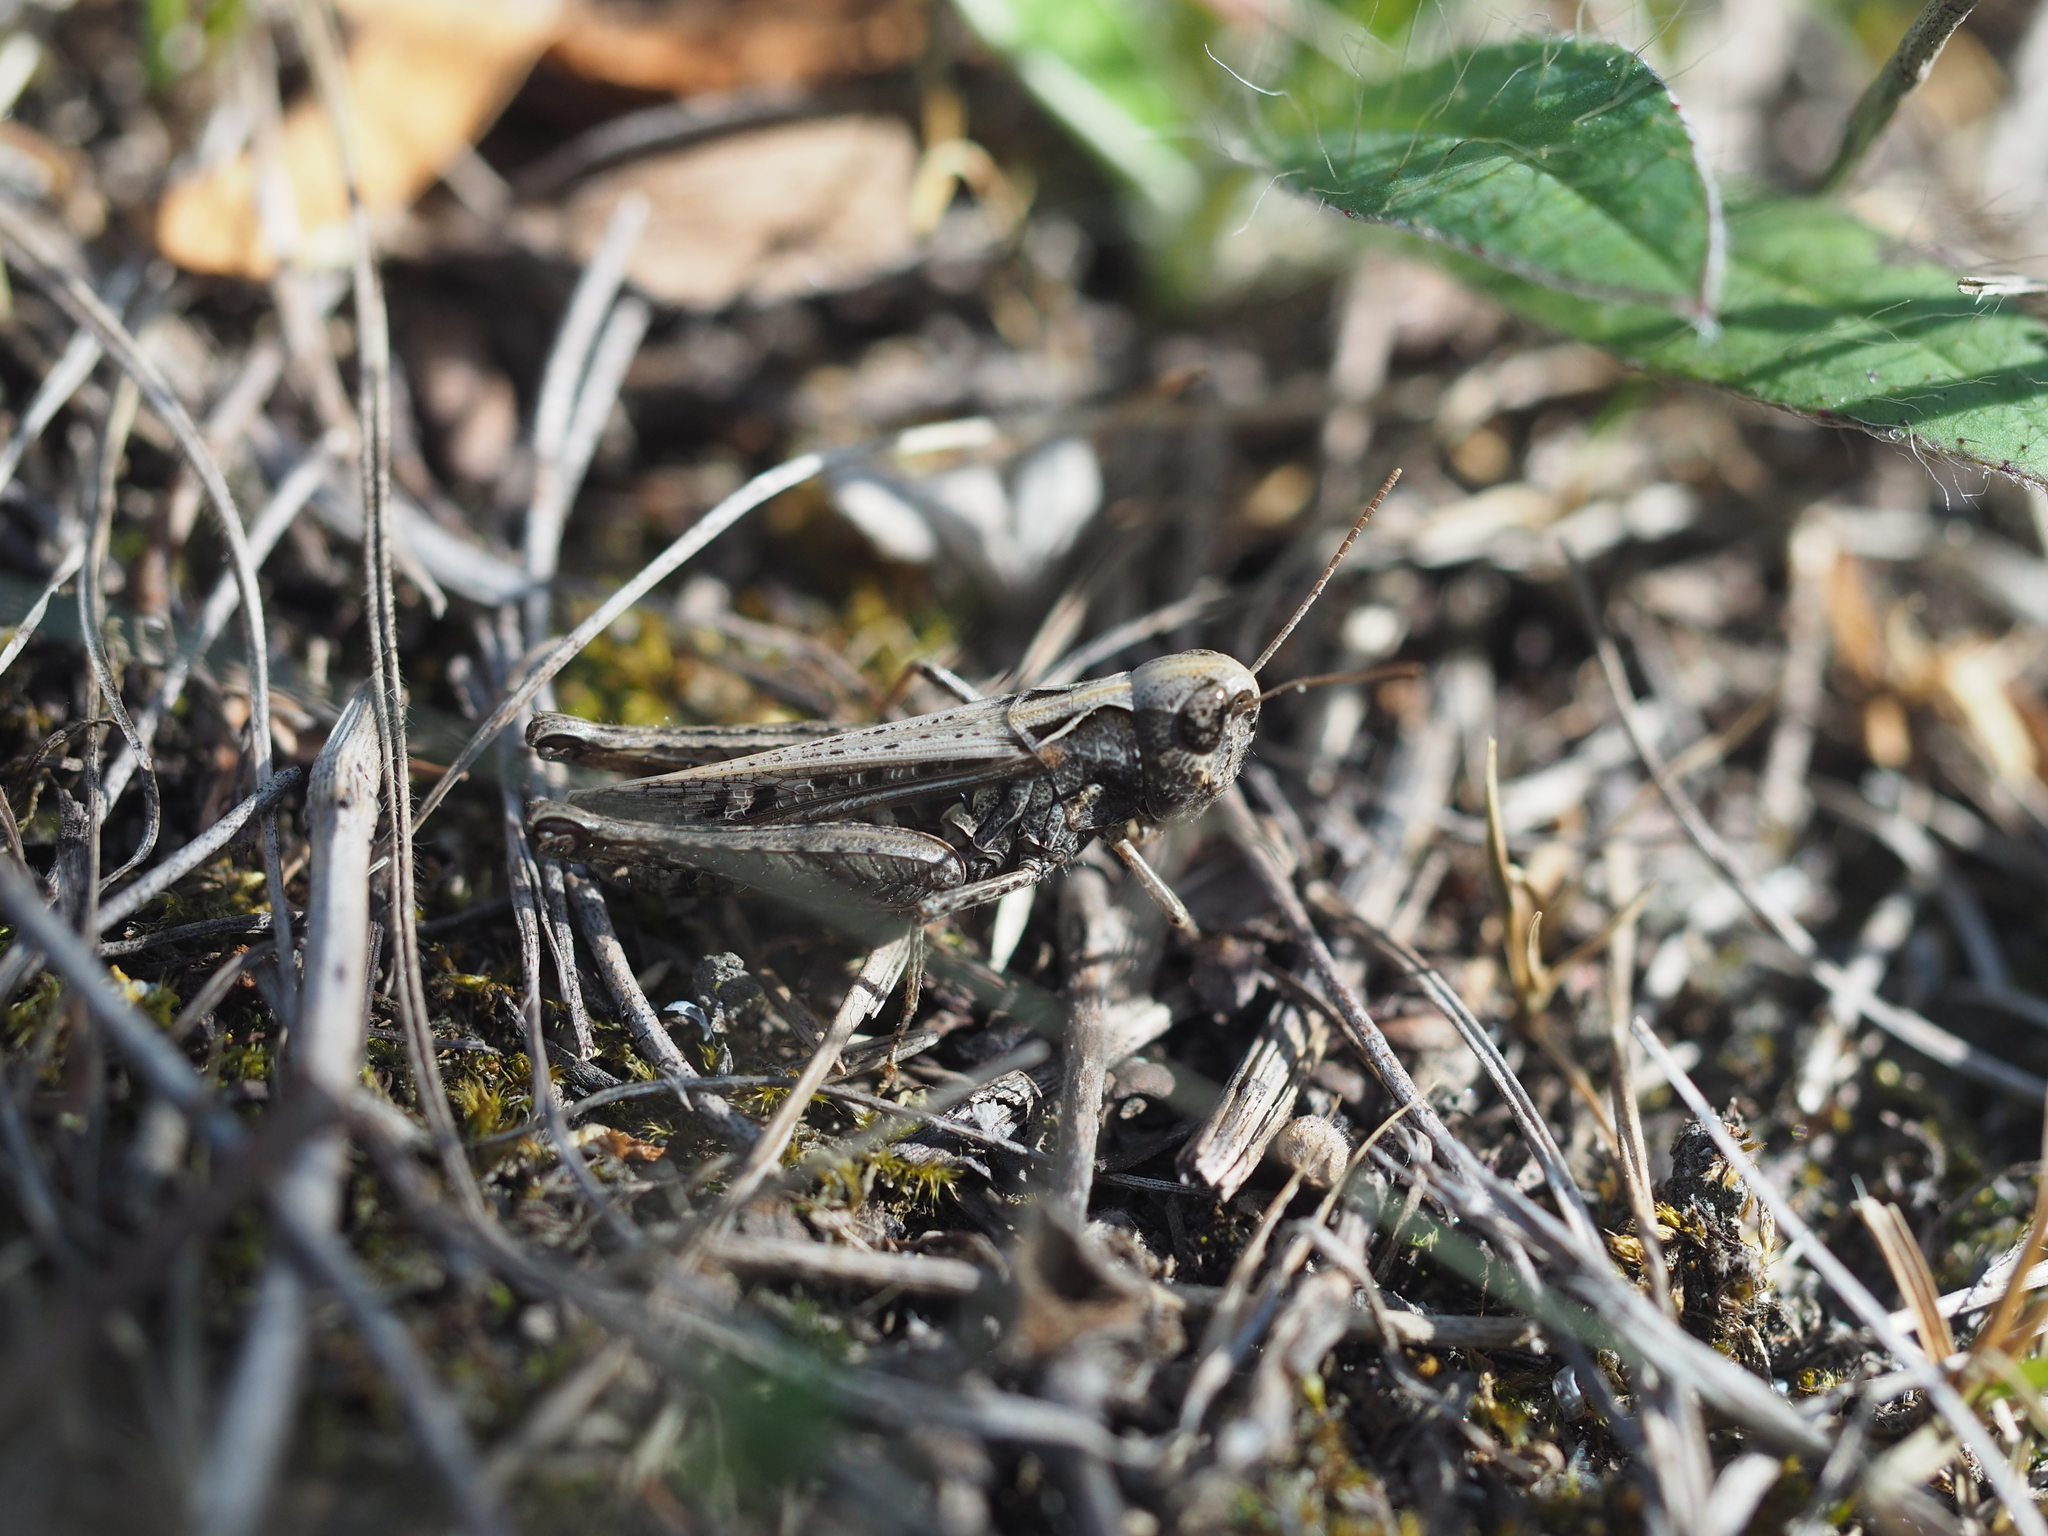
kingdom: Animalia
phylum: Arthropoda
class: Insecta
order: Orthoptera
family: Acrididae
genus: Omocestus
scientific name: Omocestus haemorrhoidalis
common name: Orange-tipped grasshopper
